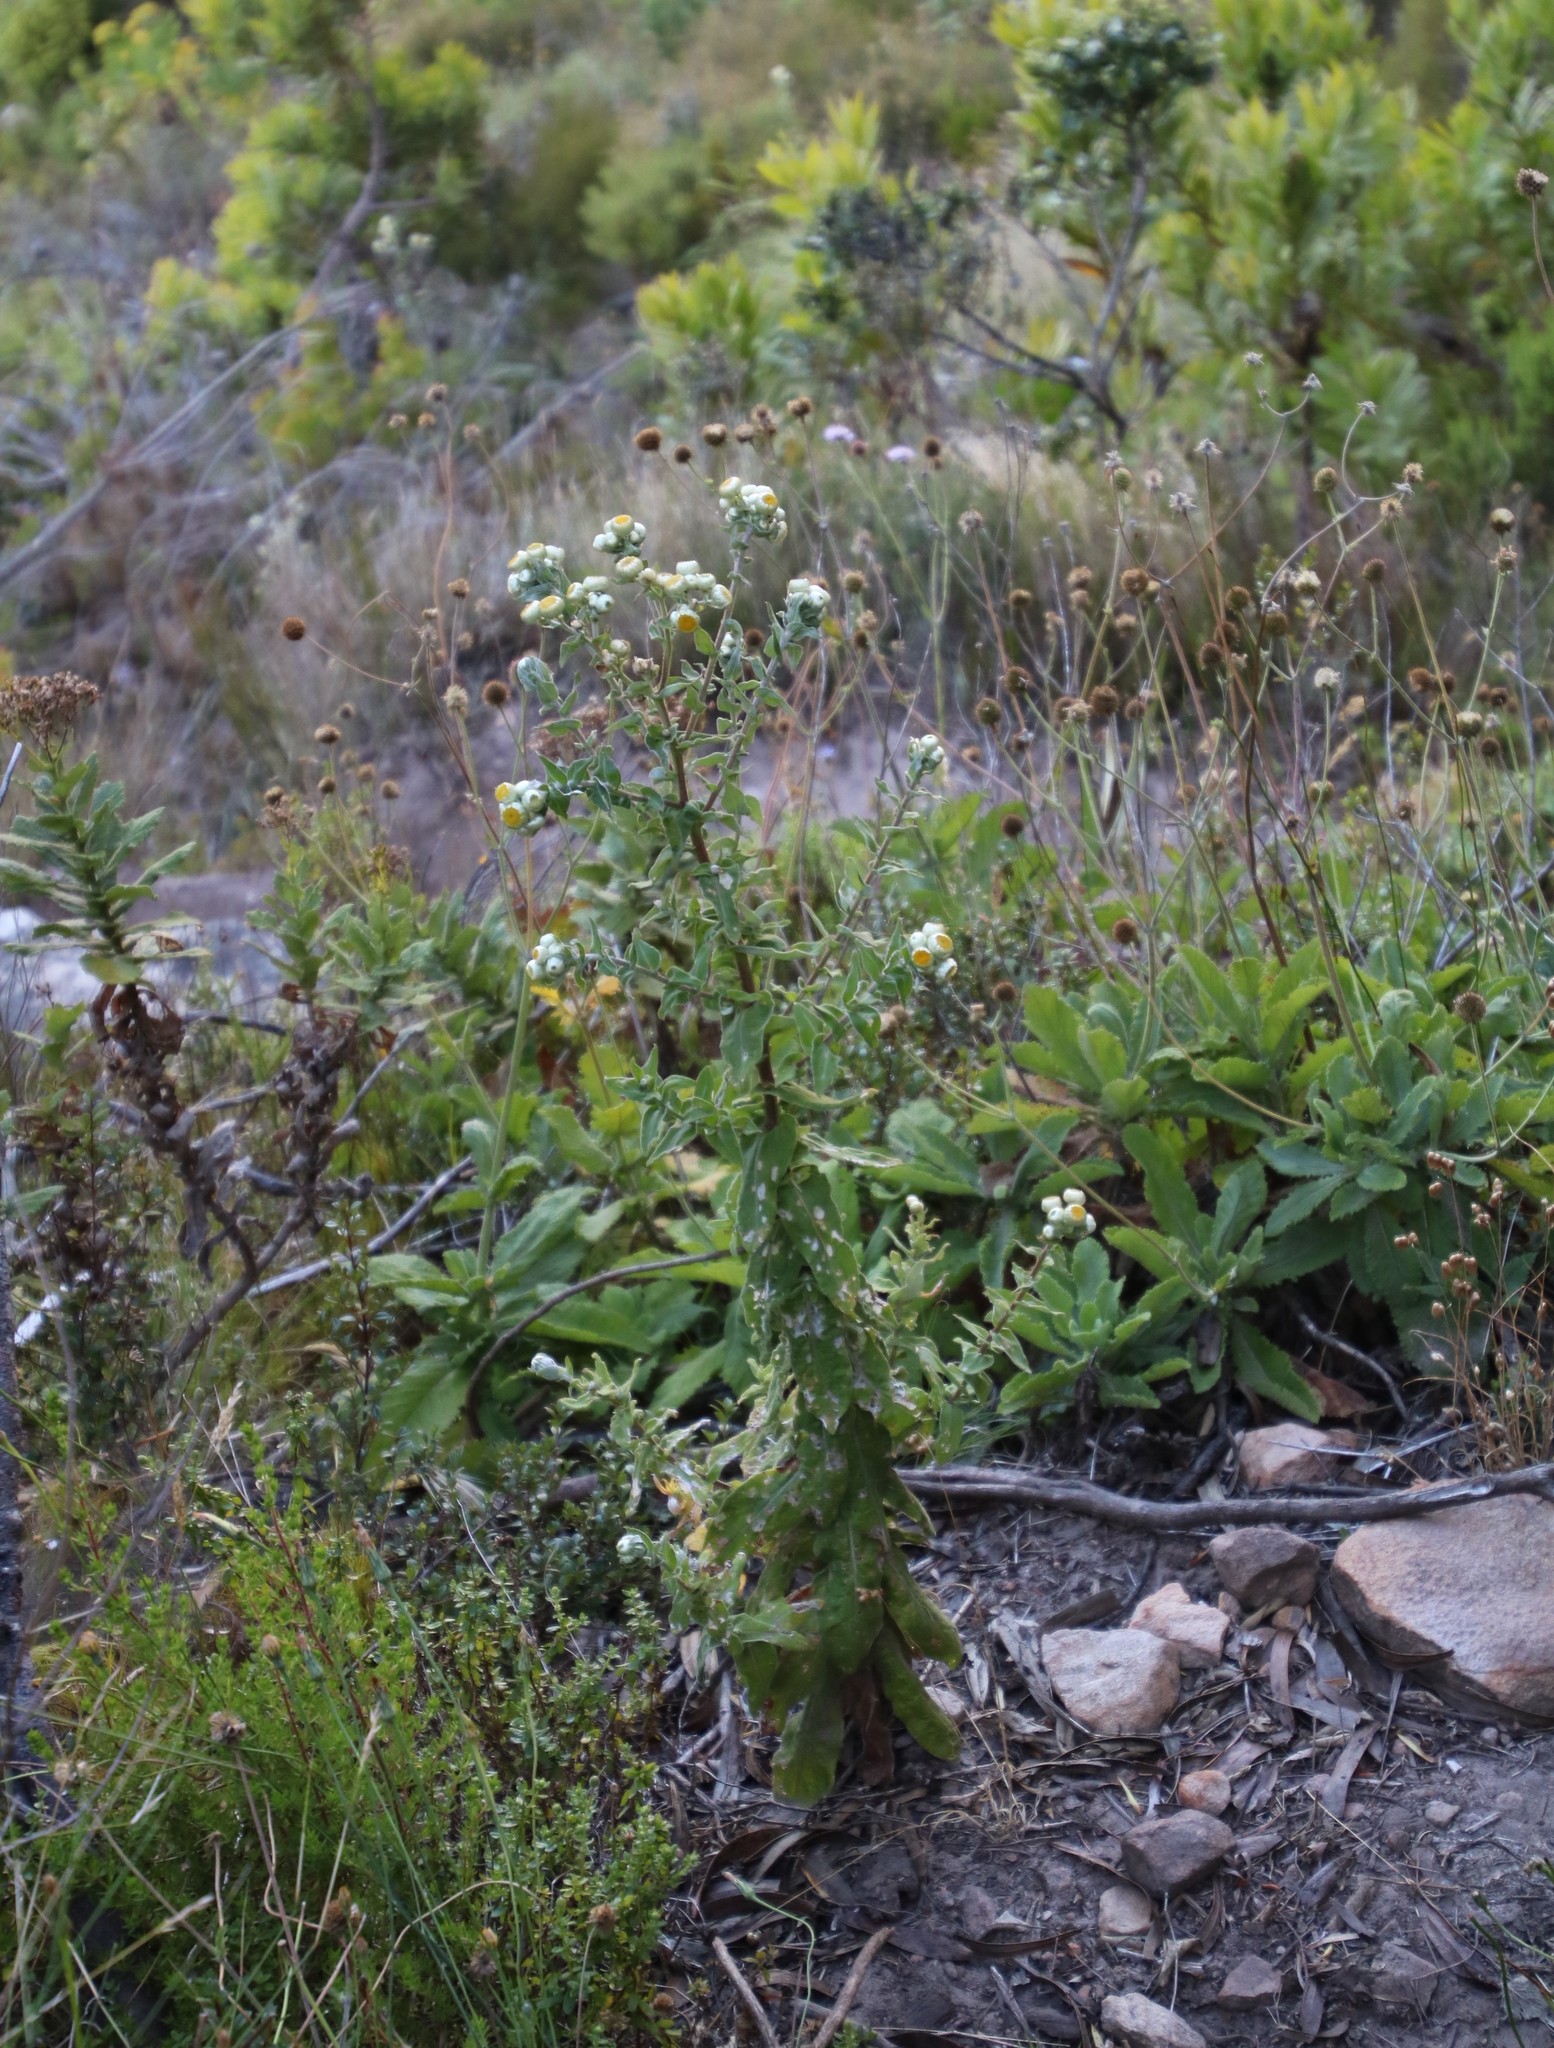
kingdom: Plantae
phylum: Tracheophyta
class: Magnoliopsida
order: Asterales
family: Asteraceae
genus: Helichrysum
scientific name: Helichrysum foetidum
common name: Stinking everlasting
